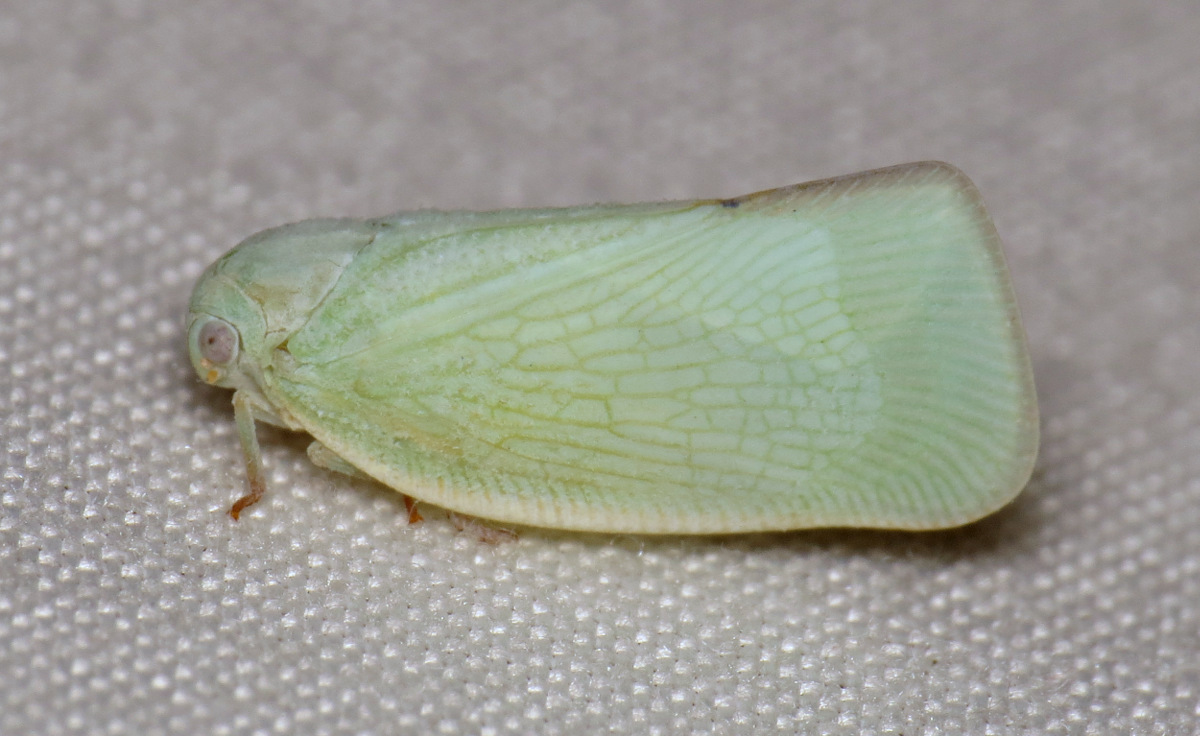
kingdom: Animalia
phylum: Arthropoda
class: Insecta
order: Hemiptera
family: Flatidae
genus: Flatormenis
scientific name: Flatormenis proxima
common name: Northern flatid planthopper
